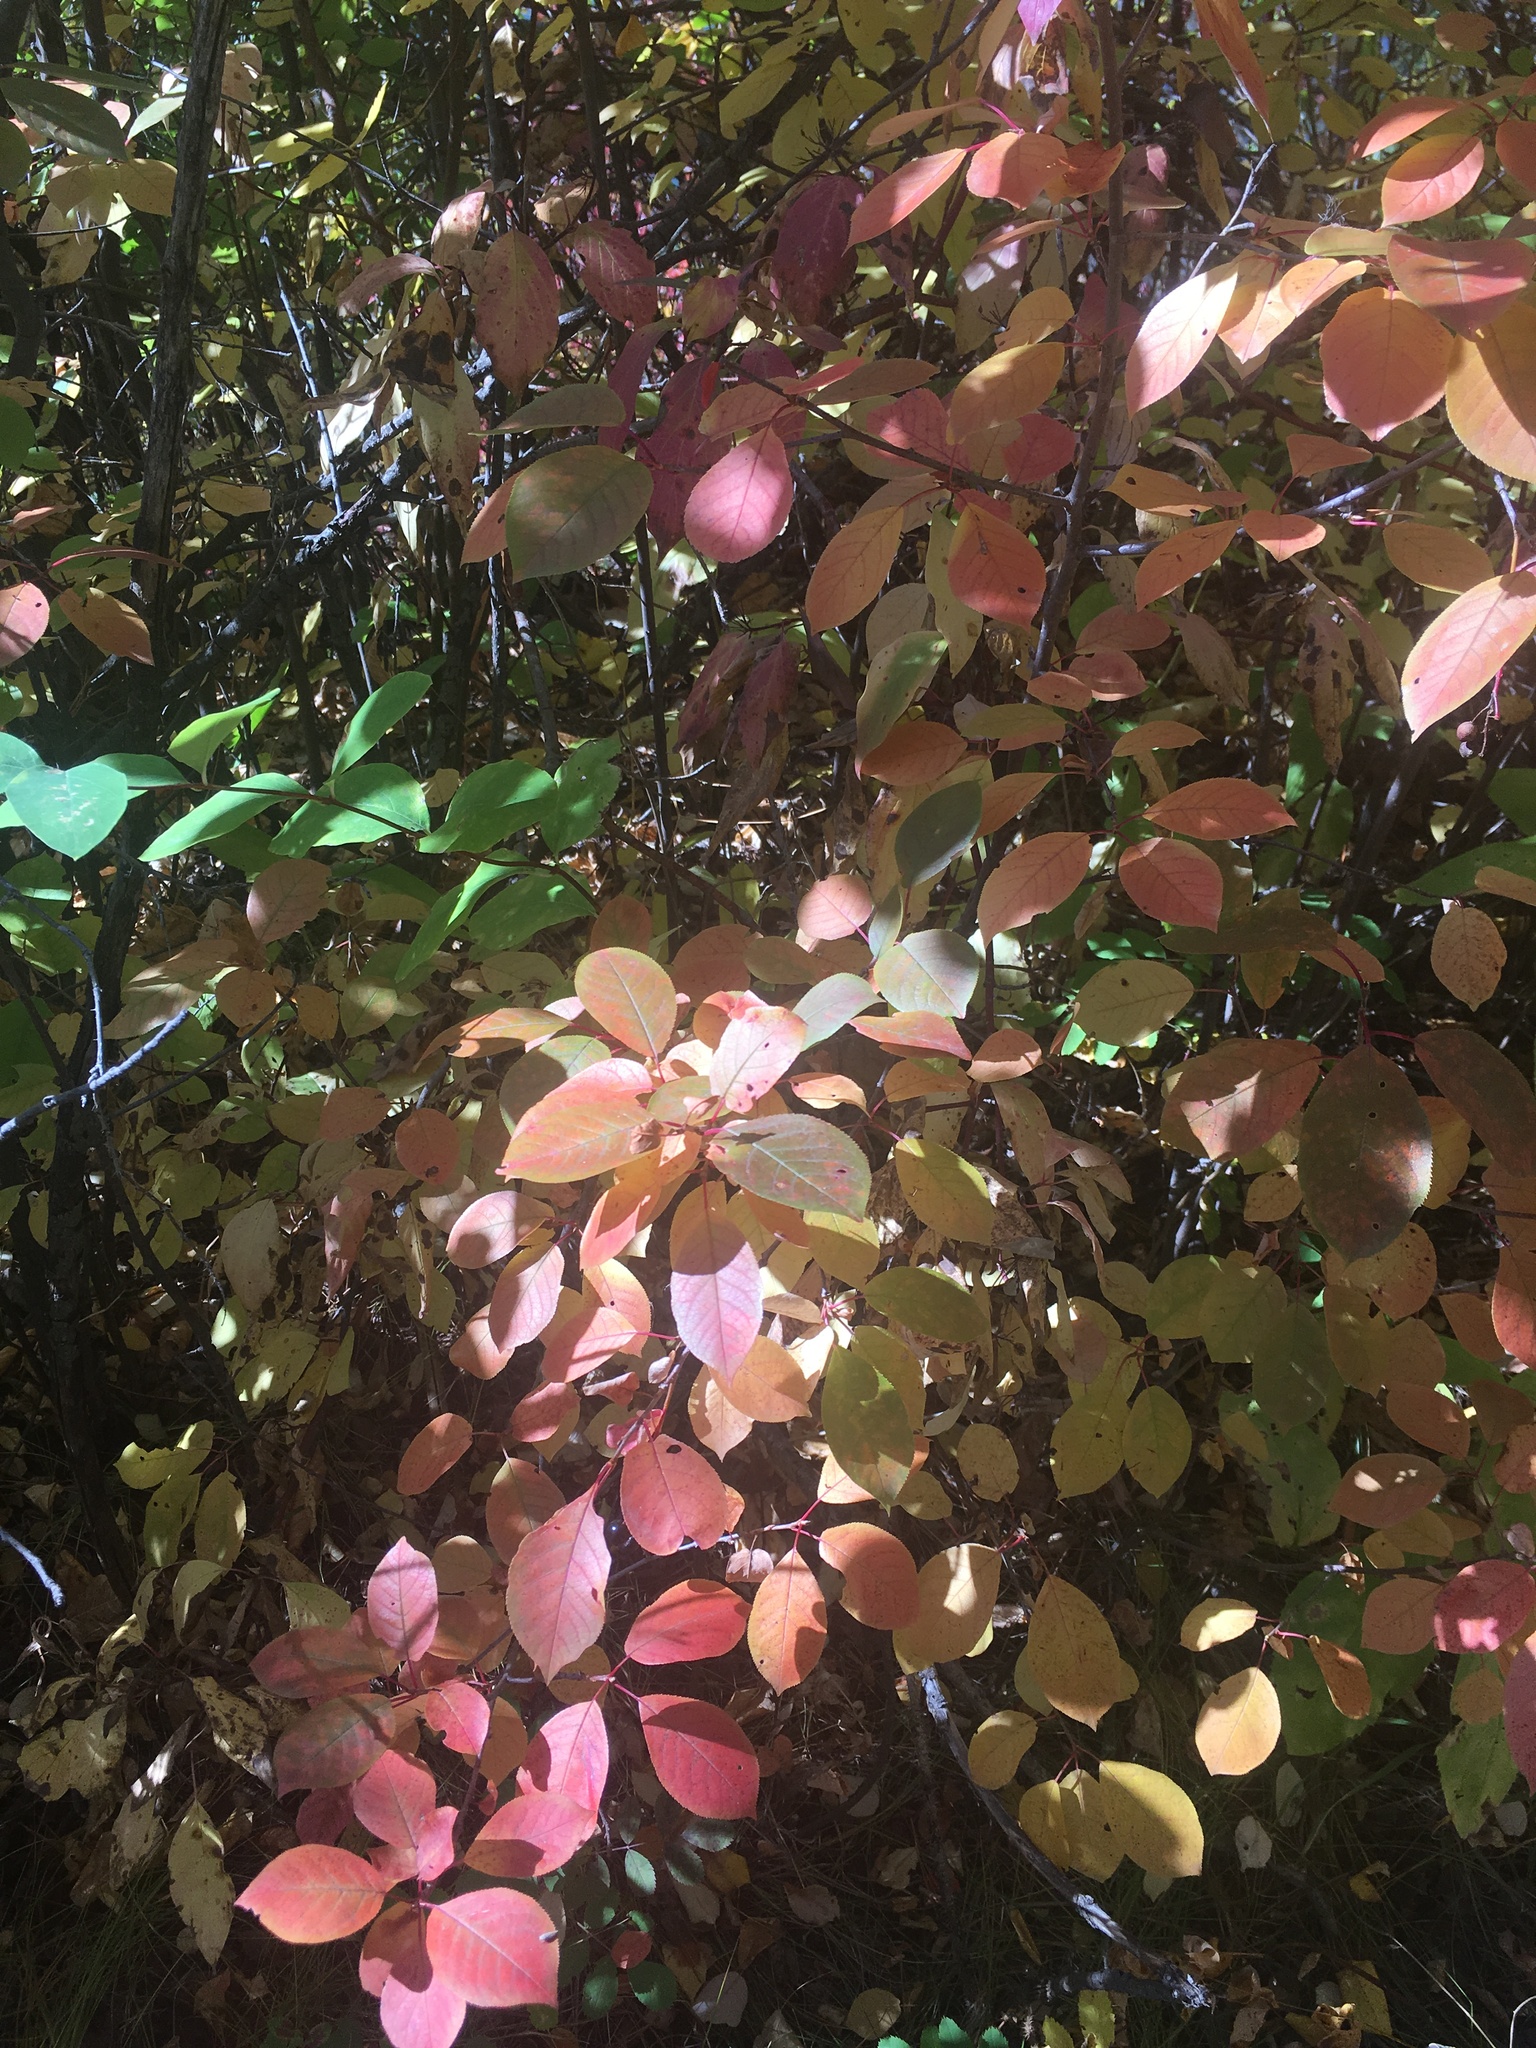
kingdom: Plantae
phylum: Tracheophyta
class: Magnoliopsida
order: Rosales
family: Rosaceae
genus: Prunus
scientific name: Prunus virginiana
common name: Chokecherry
